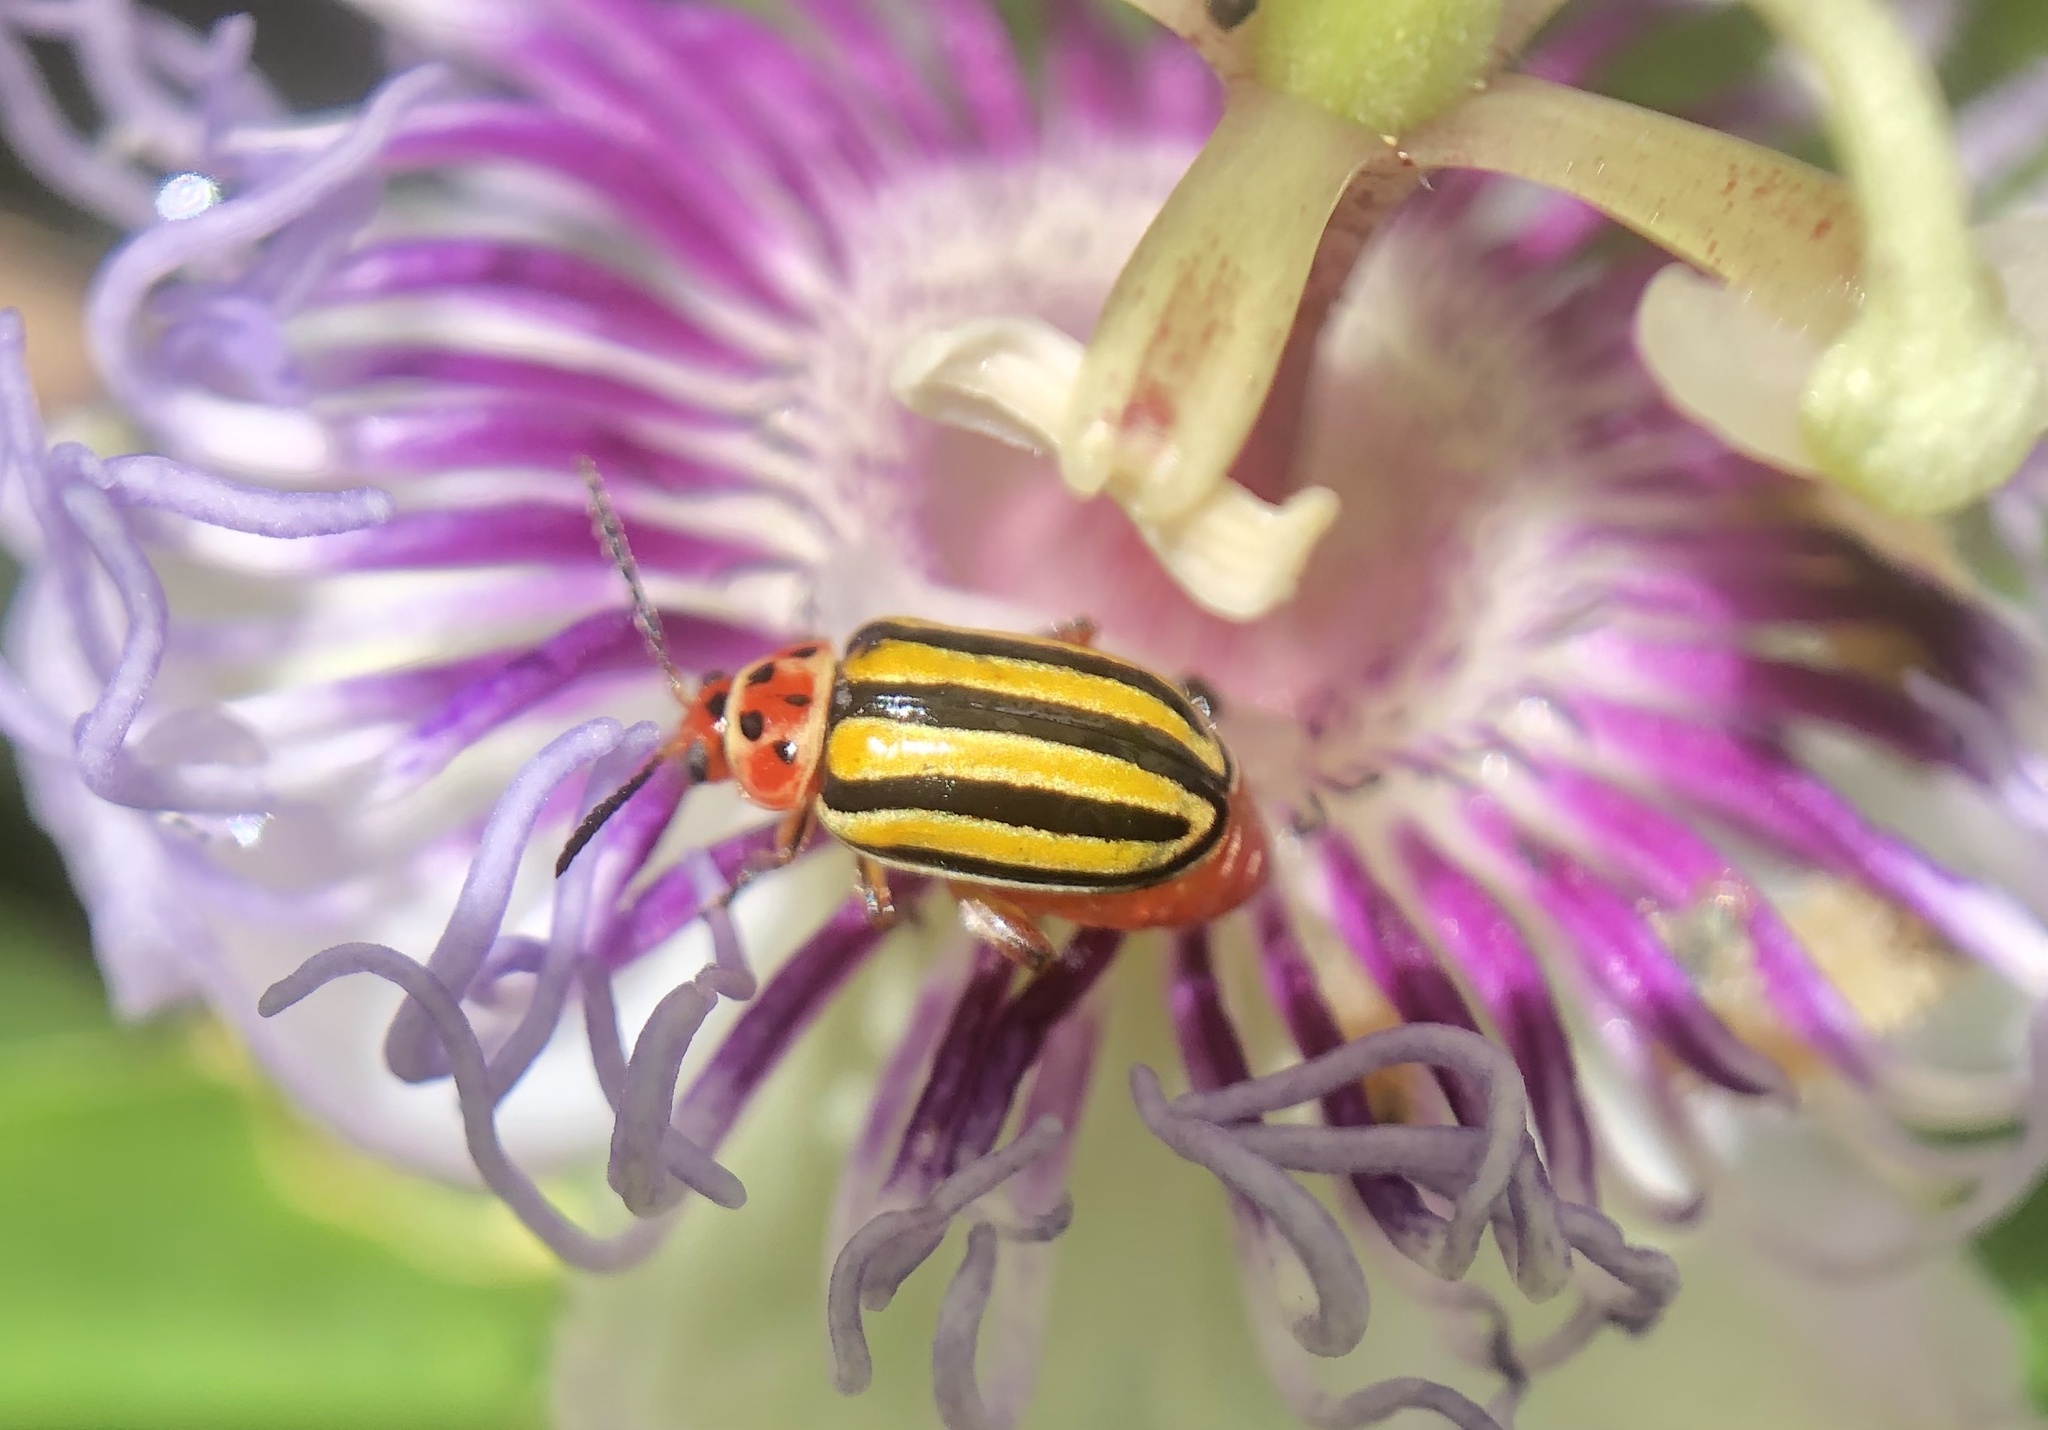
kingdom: Animalia
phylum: Arthropoda
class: Insecta
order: Coleoptera
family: Chrysomelidae
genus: Disonycha
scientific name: Disonycha spilotrachela
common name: Caribbean flea beetle
